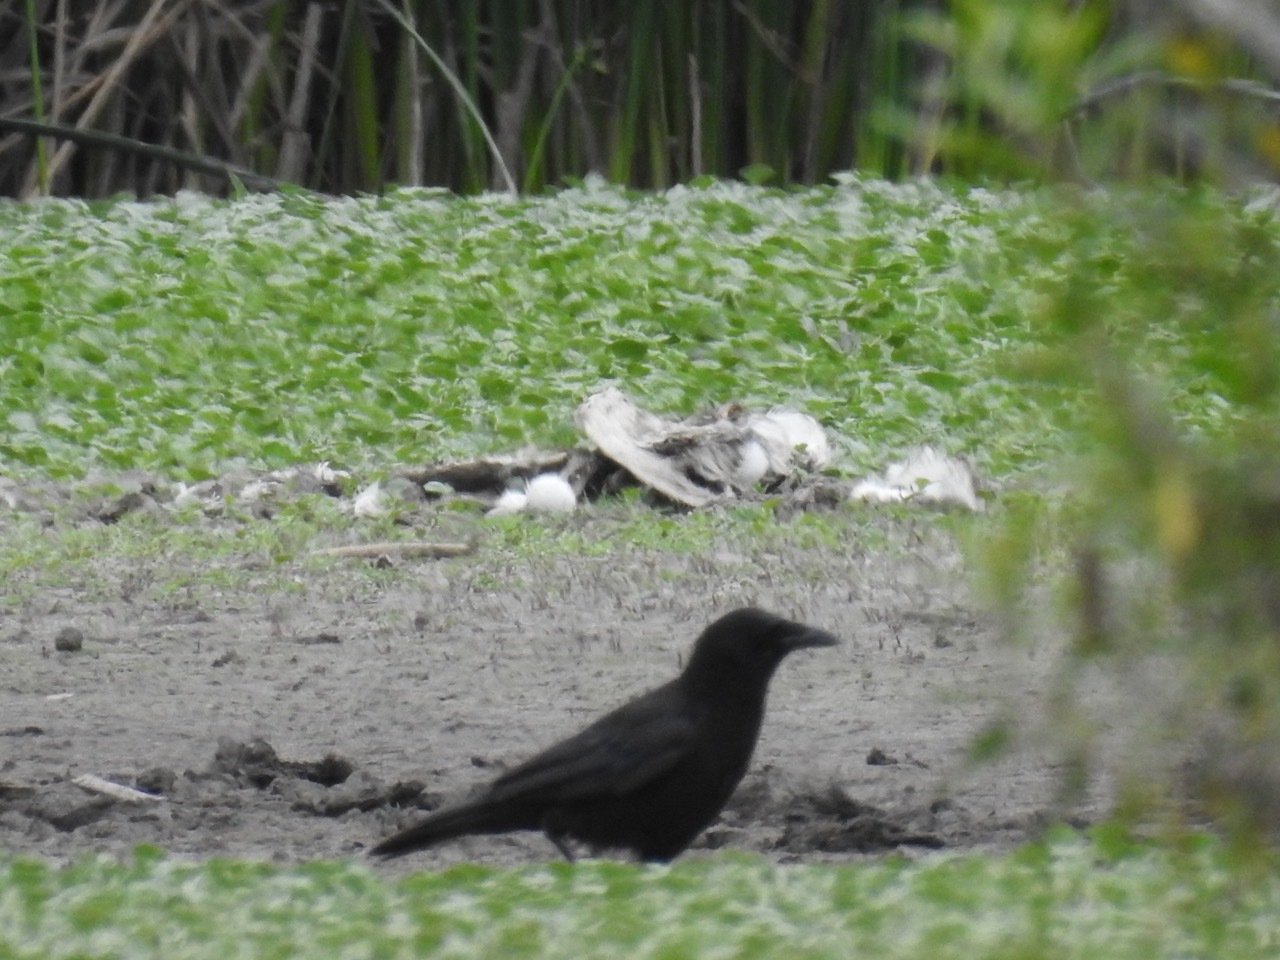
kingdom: Animalia
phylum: Chordata
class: Aves
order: Passeriformes
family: Corvidae
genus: Corvus
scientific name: Corvus brachyrhynchos
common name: American crow
